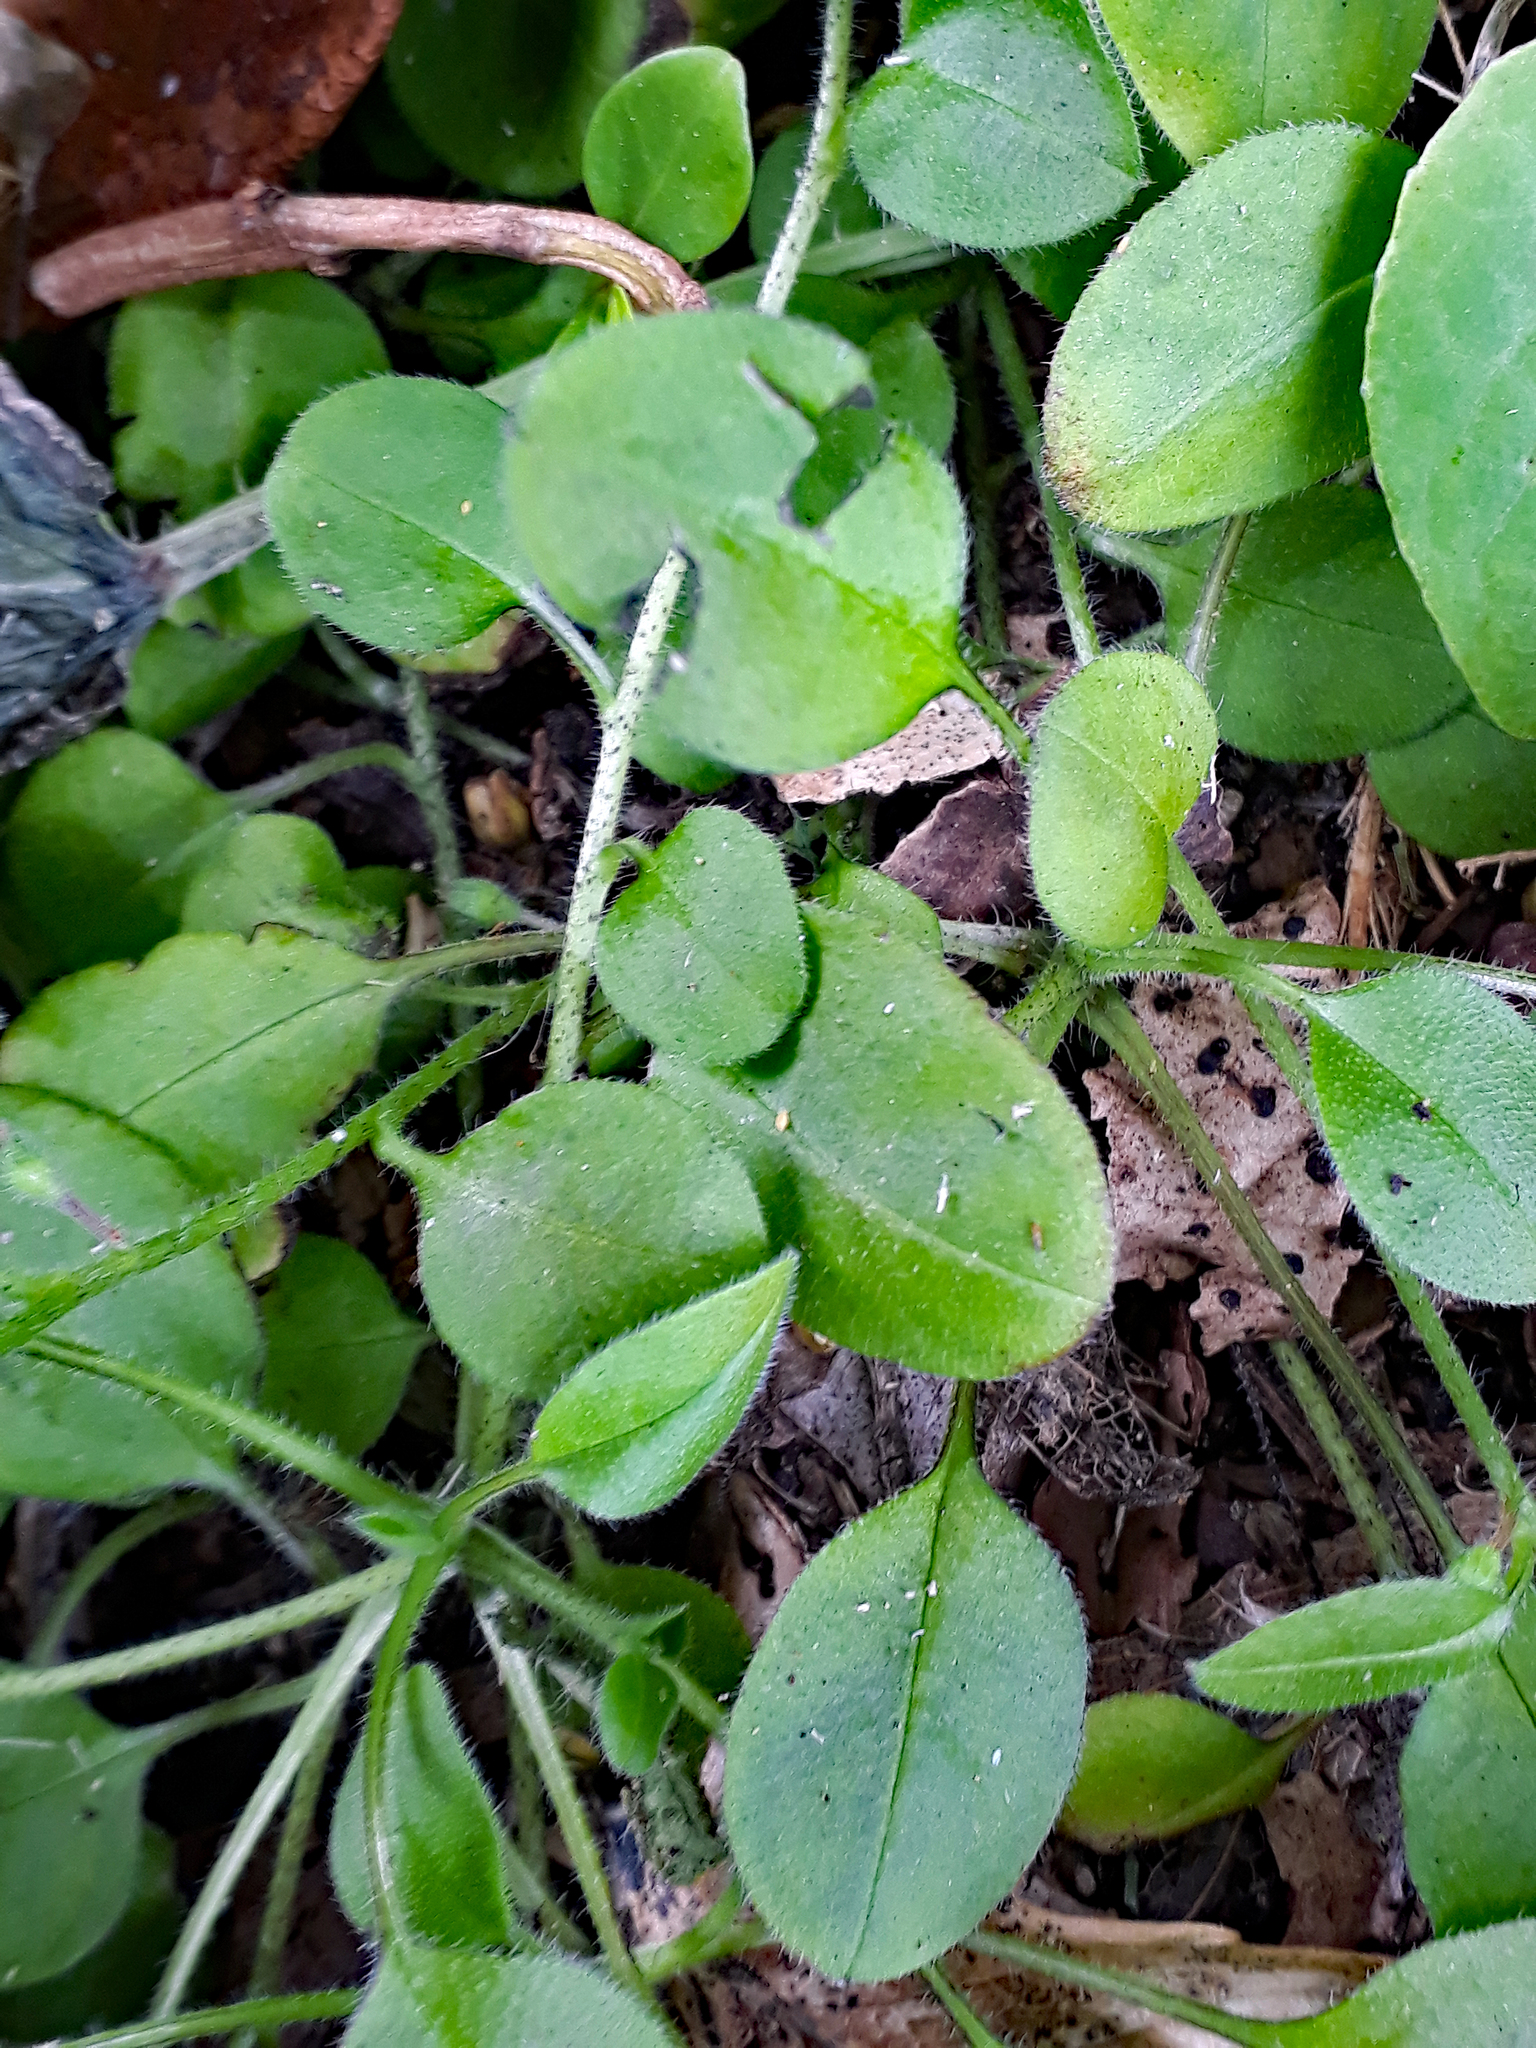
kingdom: Plantae
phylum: Tracheophyta
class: Magnoliopsida
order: Boraginales
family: Boraginaceae
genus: Myosotis
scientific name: Myosotis spathulata
